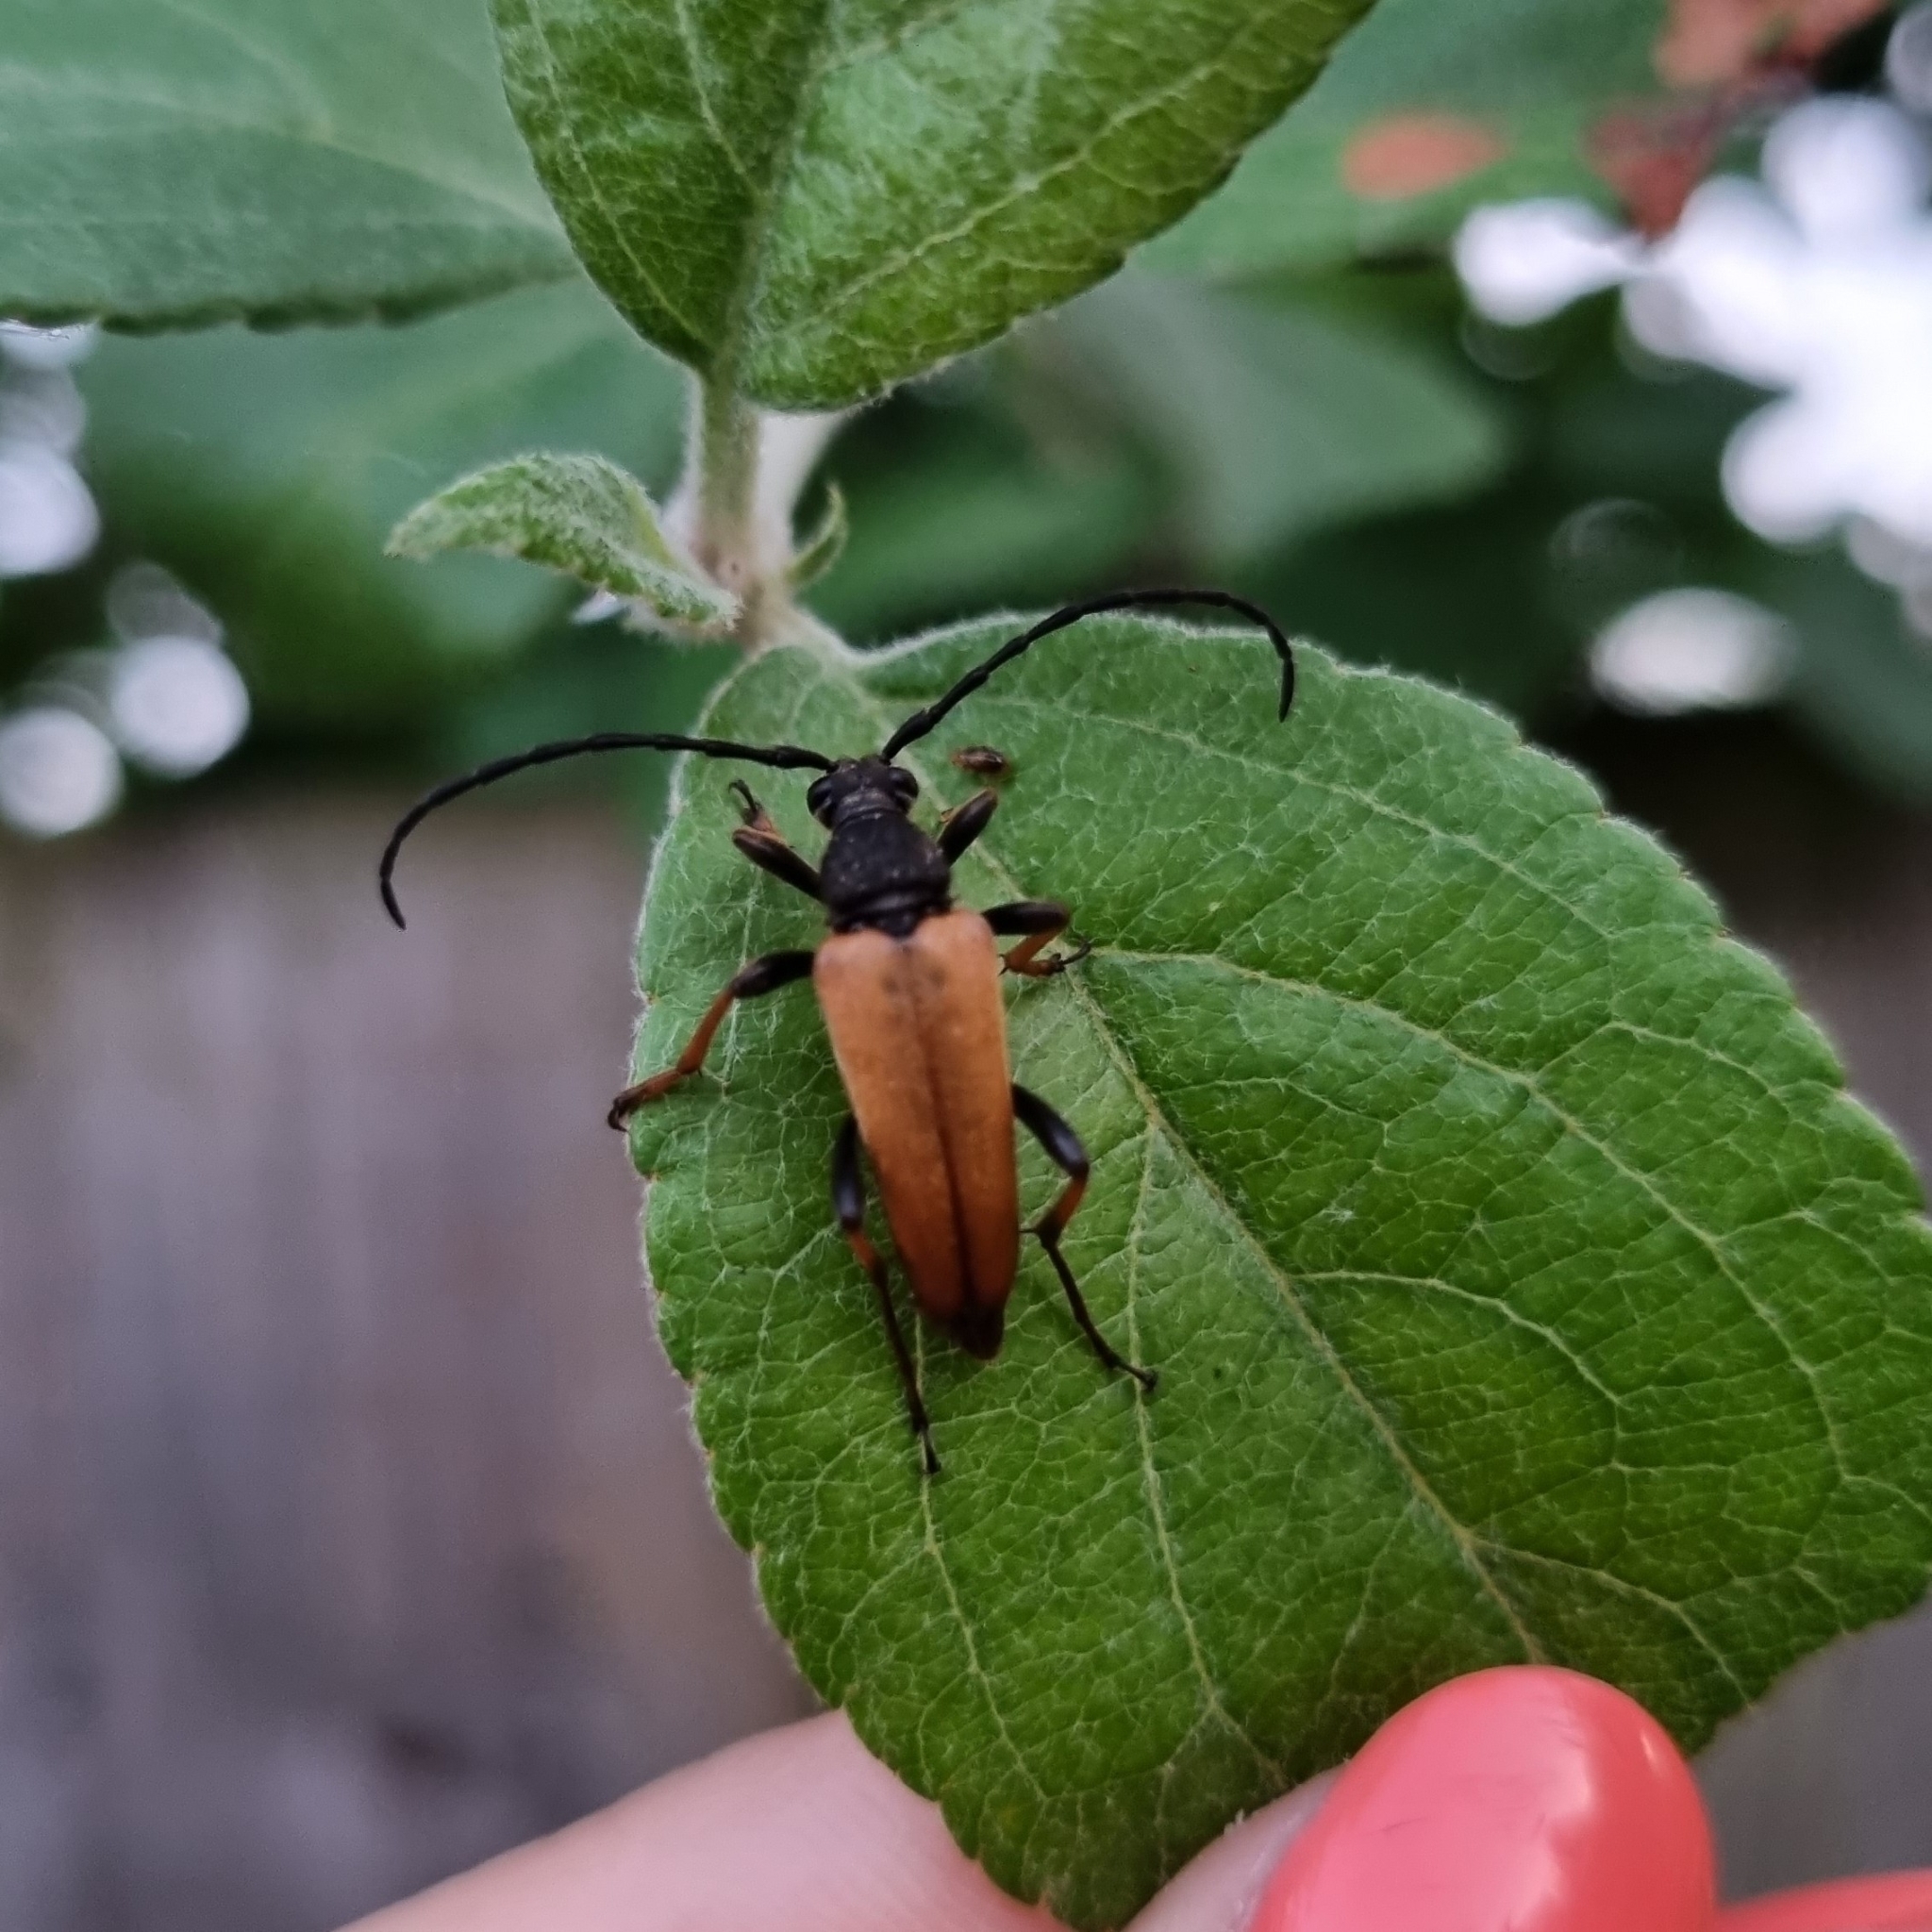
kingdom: Animalia
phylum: Arthropoda
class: Insecta
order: Coleoptera
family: Cerambycidae
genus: Stictoleptura
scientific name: Stictoleptura rubra
